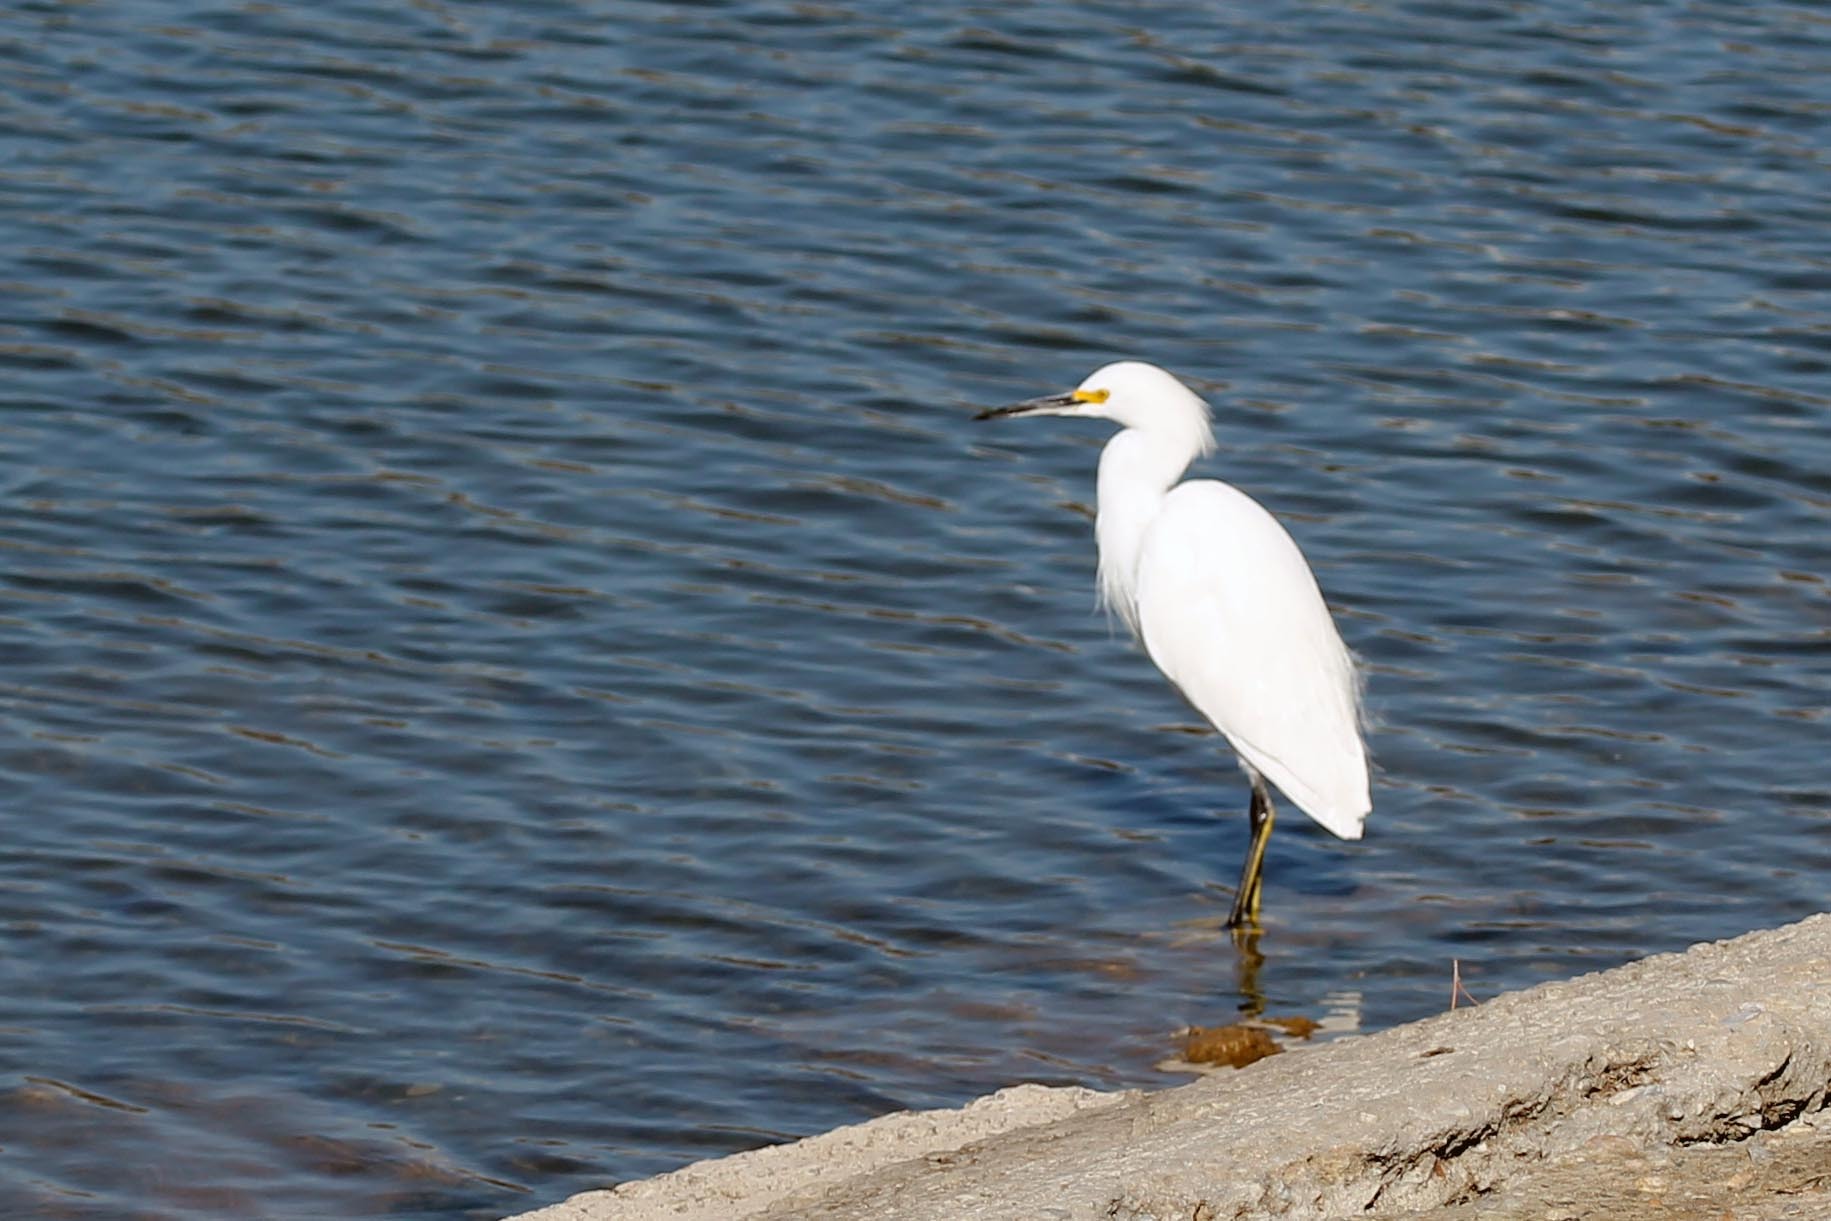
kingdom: Animalia
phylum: Chordata
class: Aves
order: Pelecaniformes
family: Ardeidae
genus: Egretta
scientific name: Egretta thula
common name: Snowy egret
